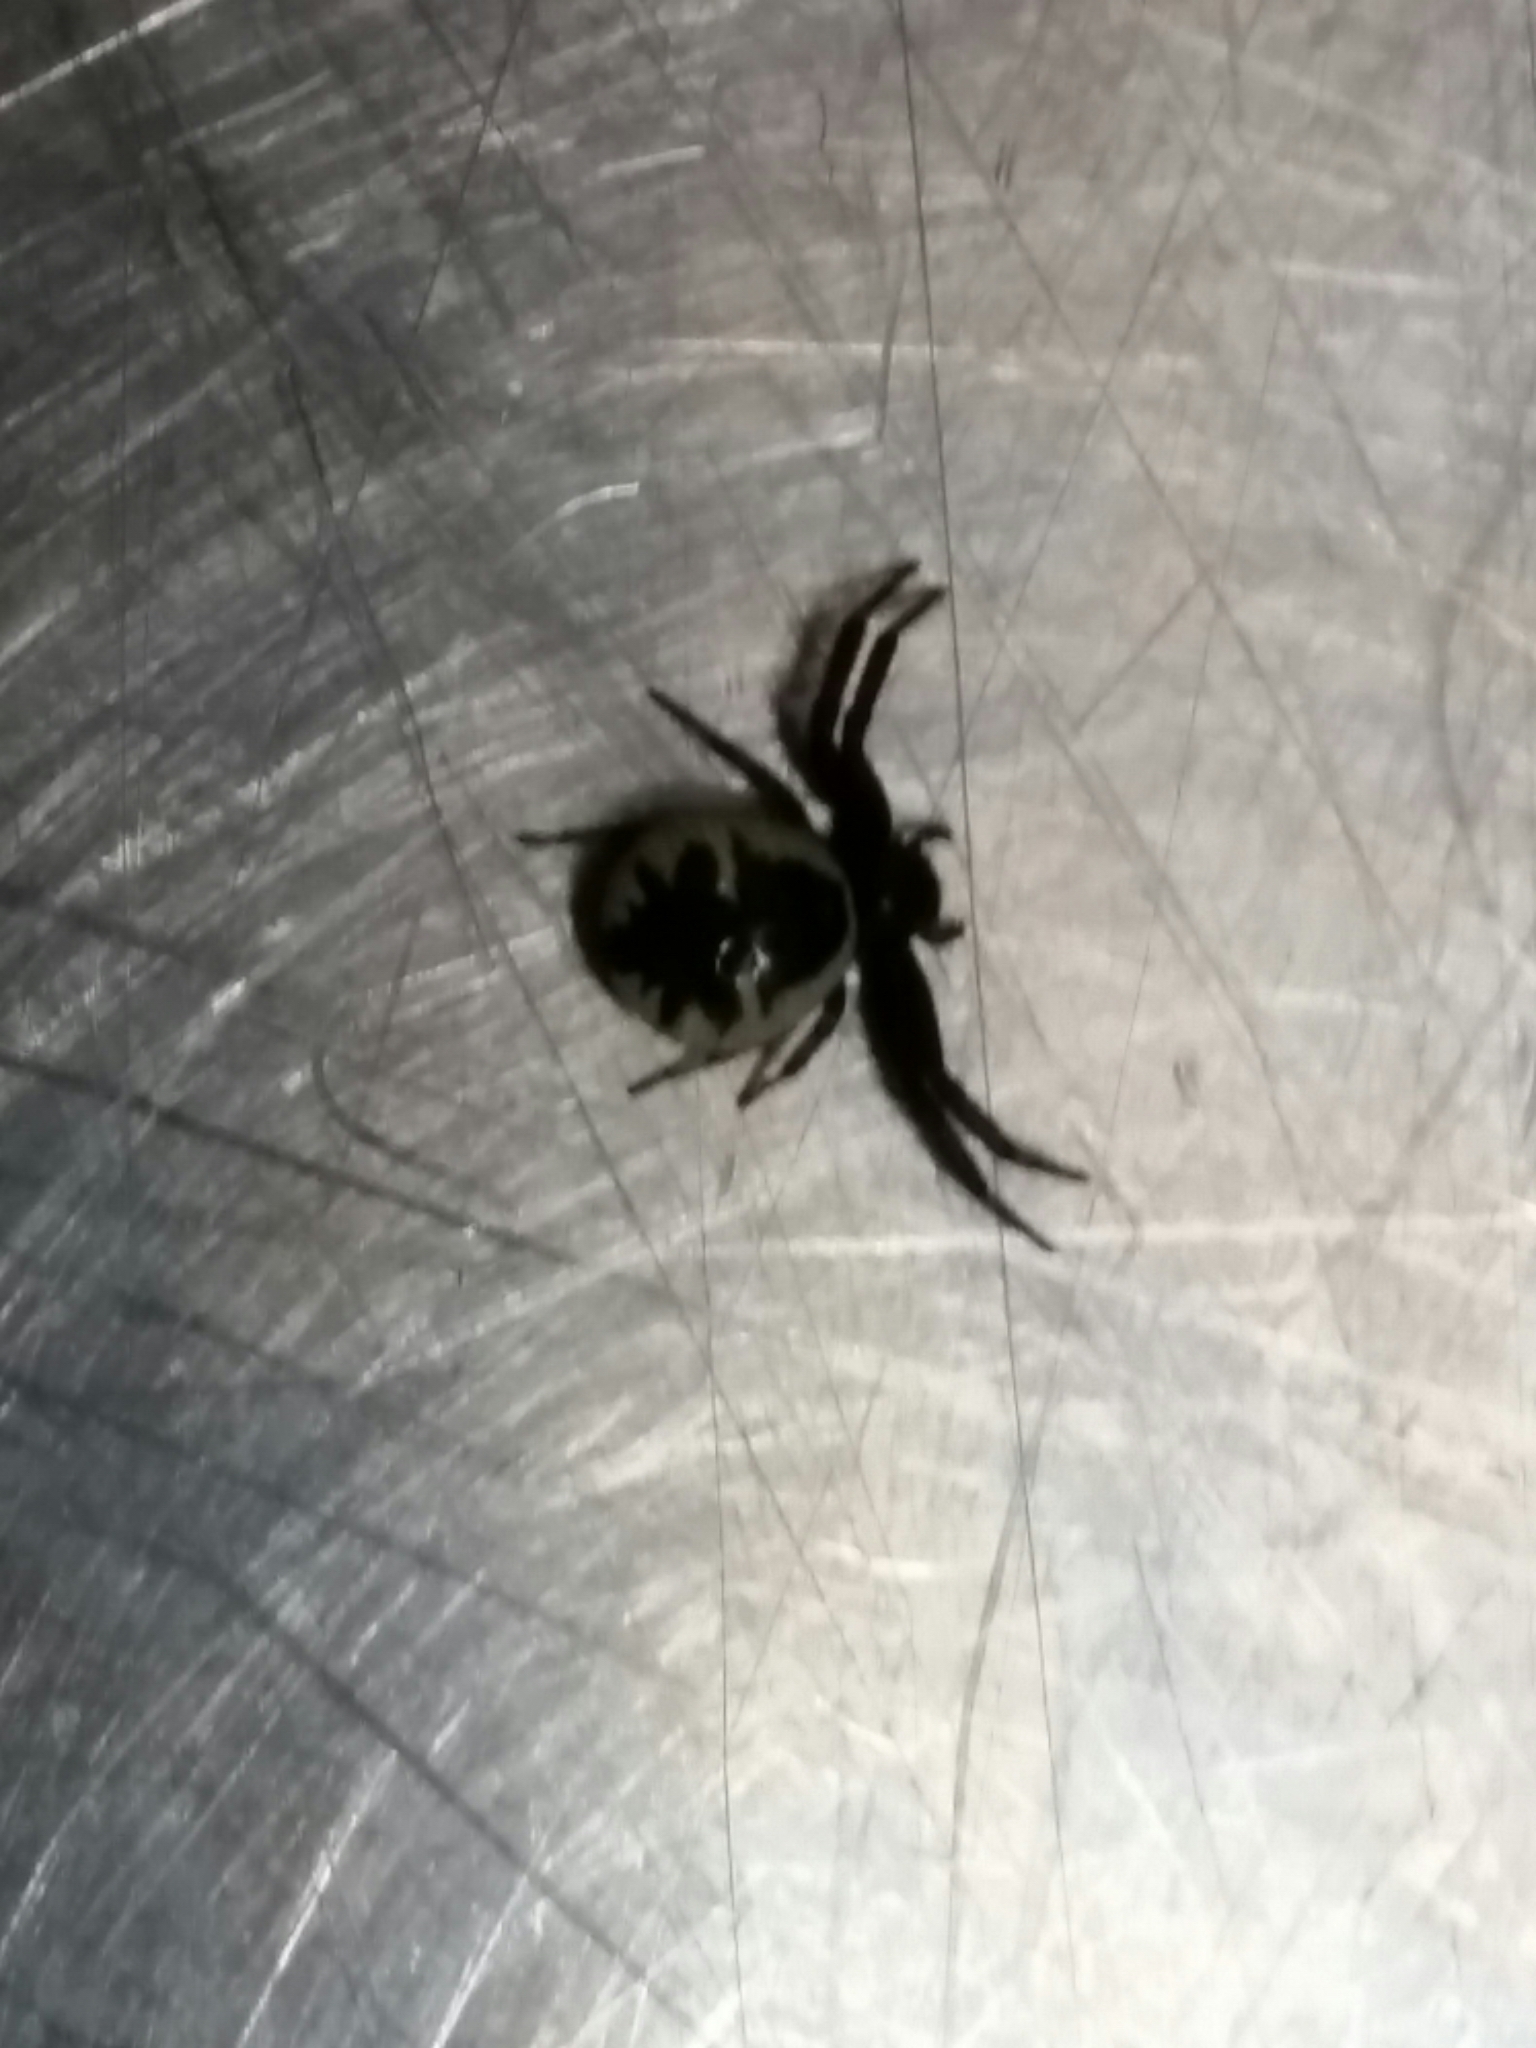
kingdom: Animalia
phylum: Arthropoda
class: Arachnida
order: Araneae
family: Thomisidae
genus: Synema
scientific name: Synema globosum
